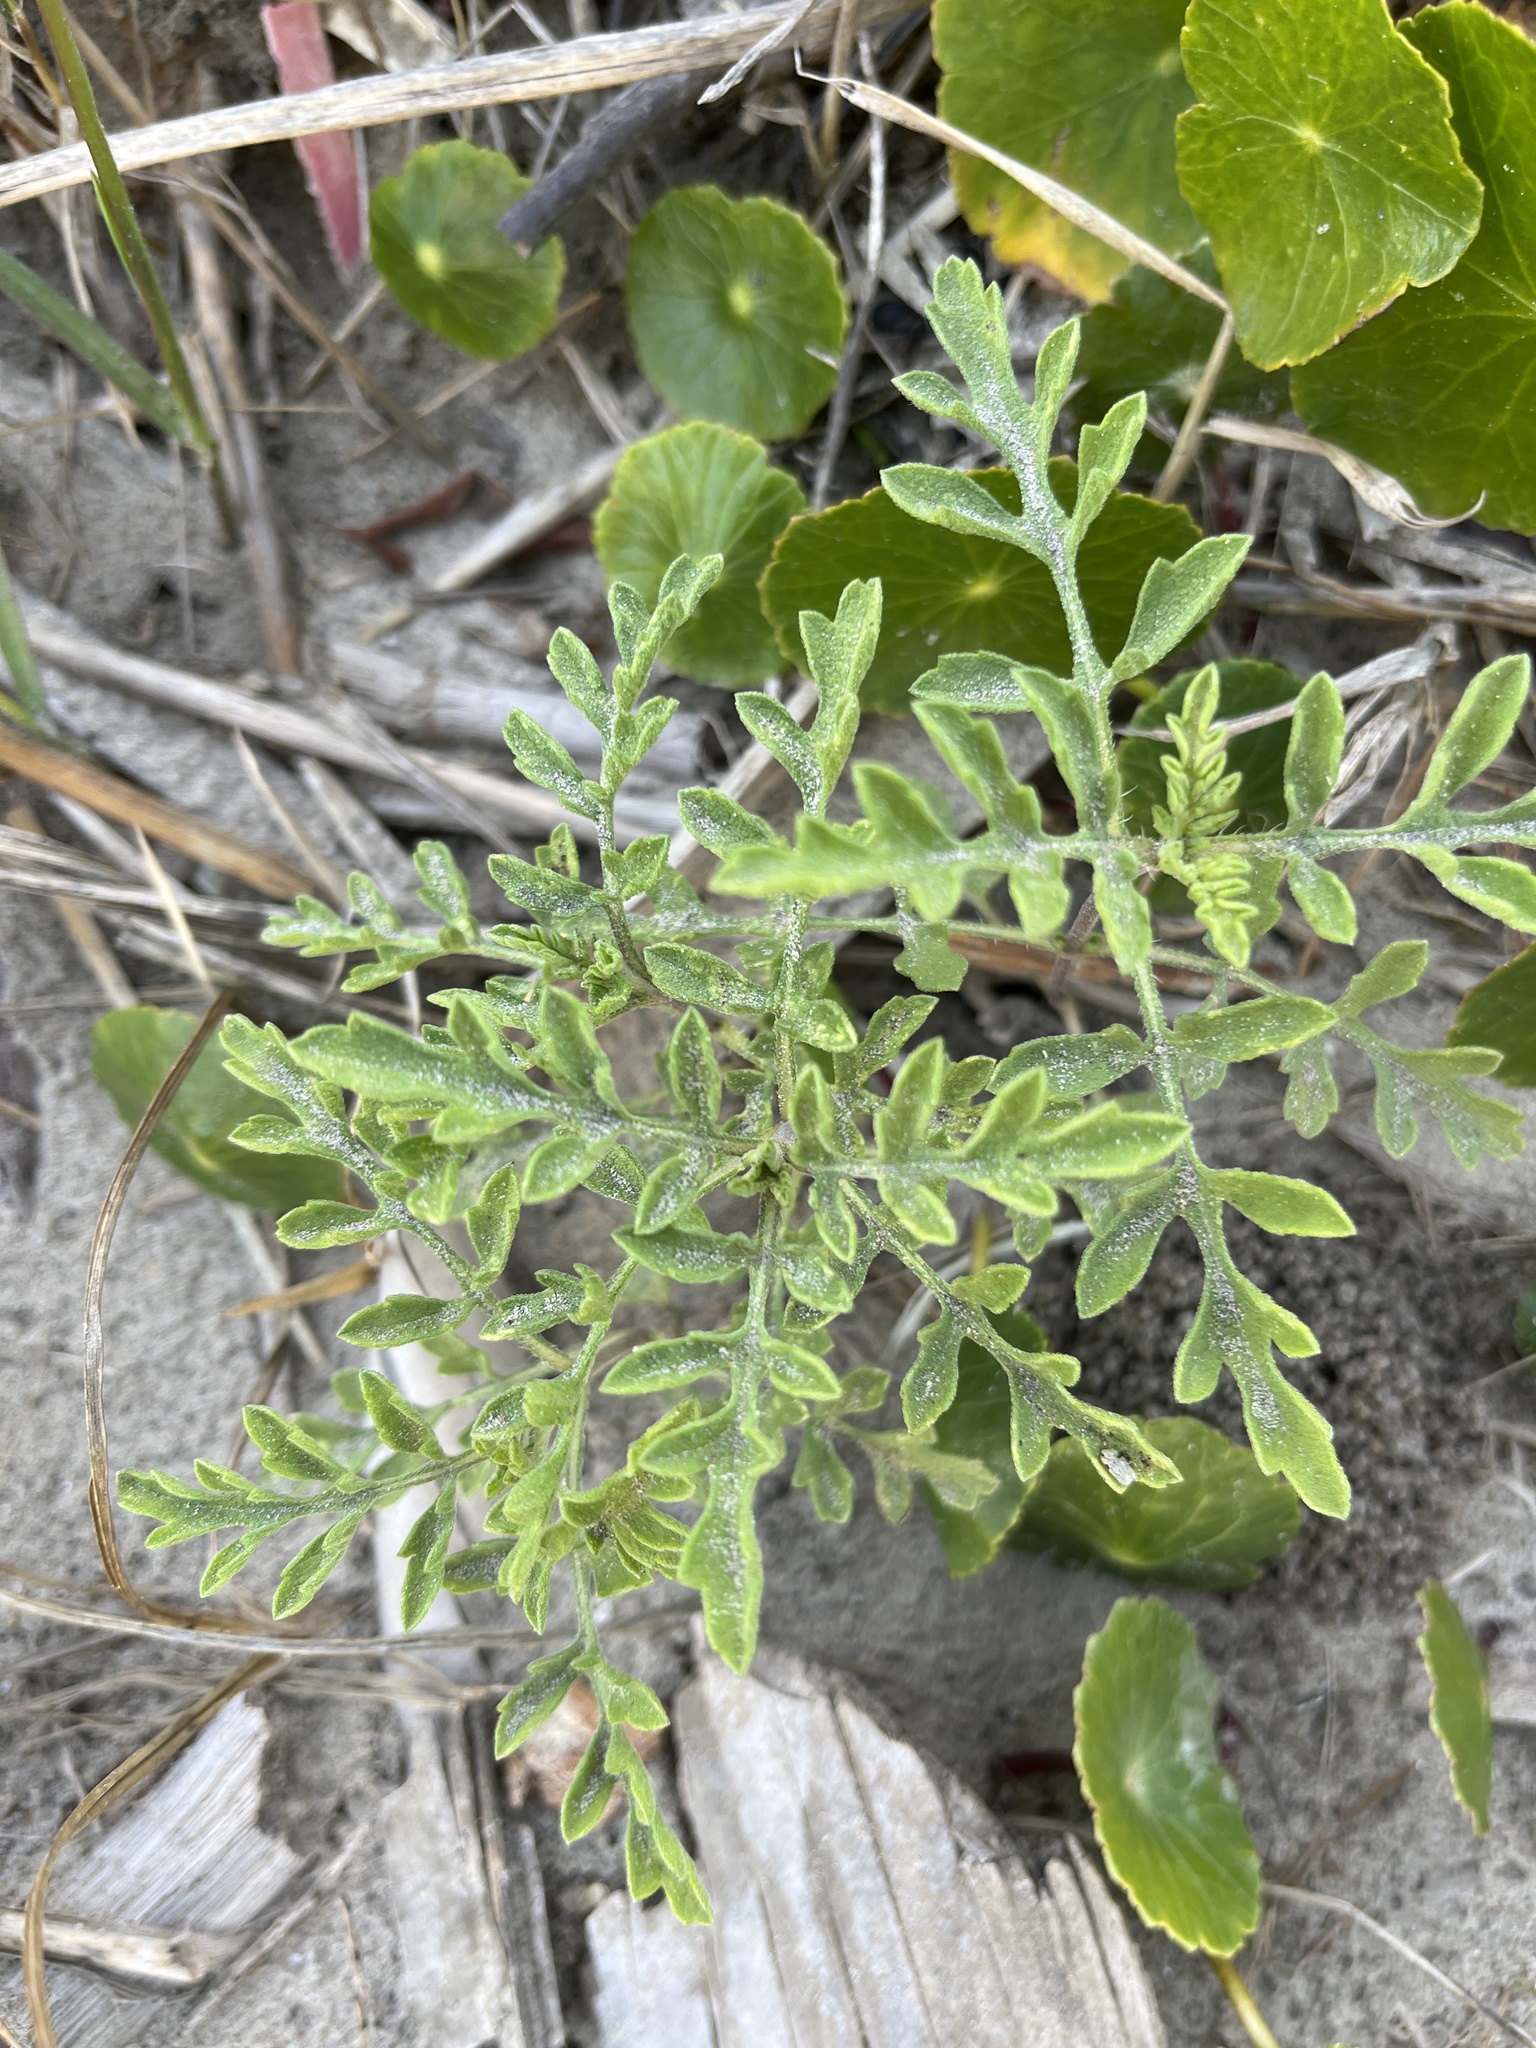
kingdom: Plantae
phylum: Tracheophyta
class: Magnoliopsida
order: Asterales
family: Asteraceae
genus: Ambrosia
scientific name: Ambrosia psilostachya
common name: Perennial ragweed
